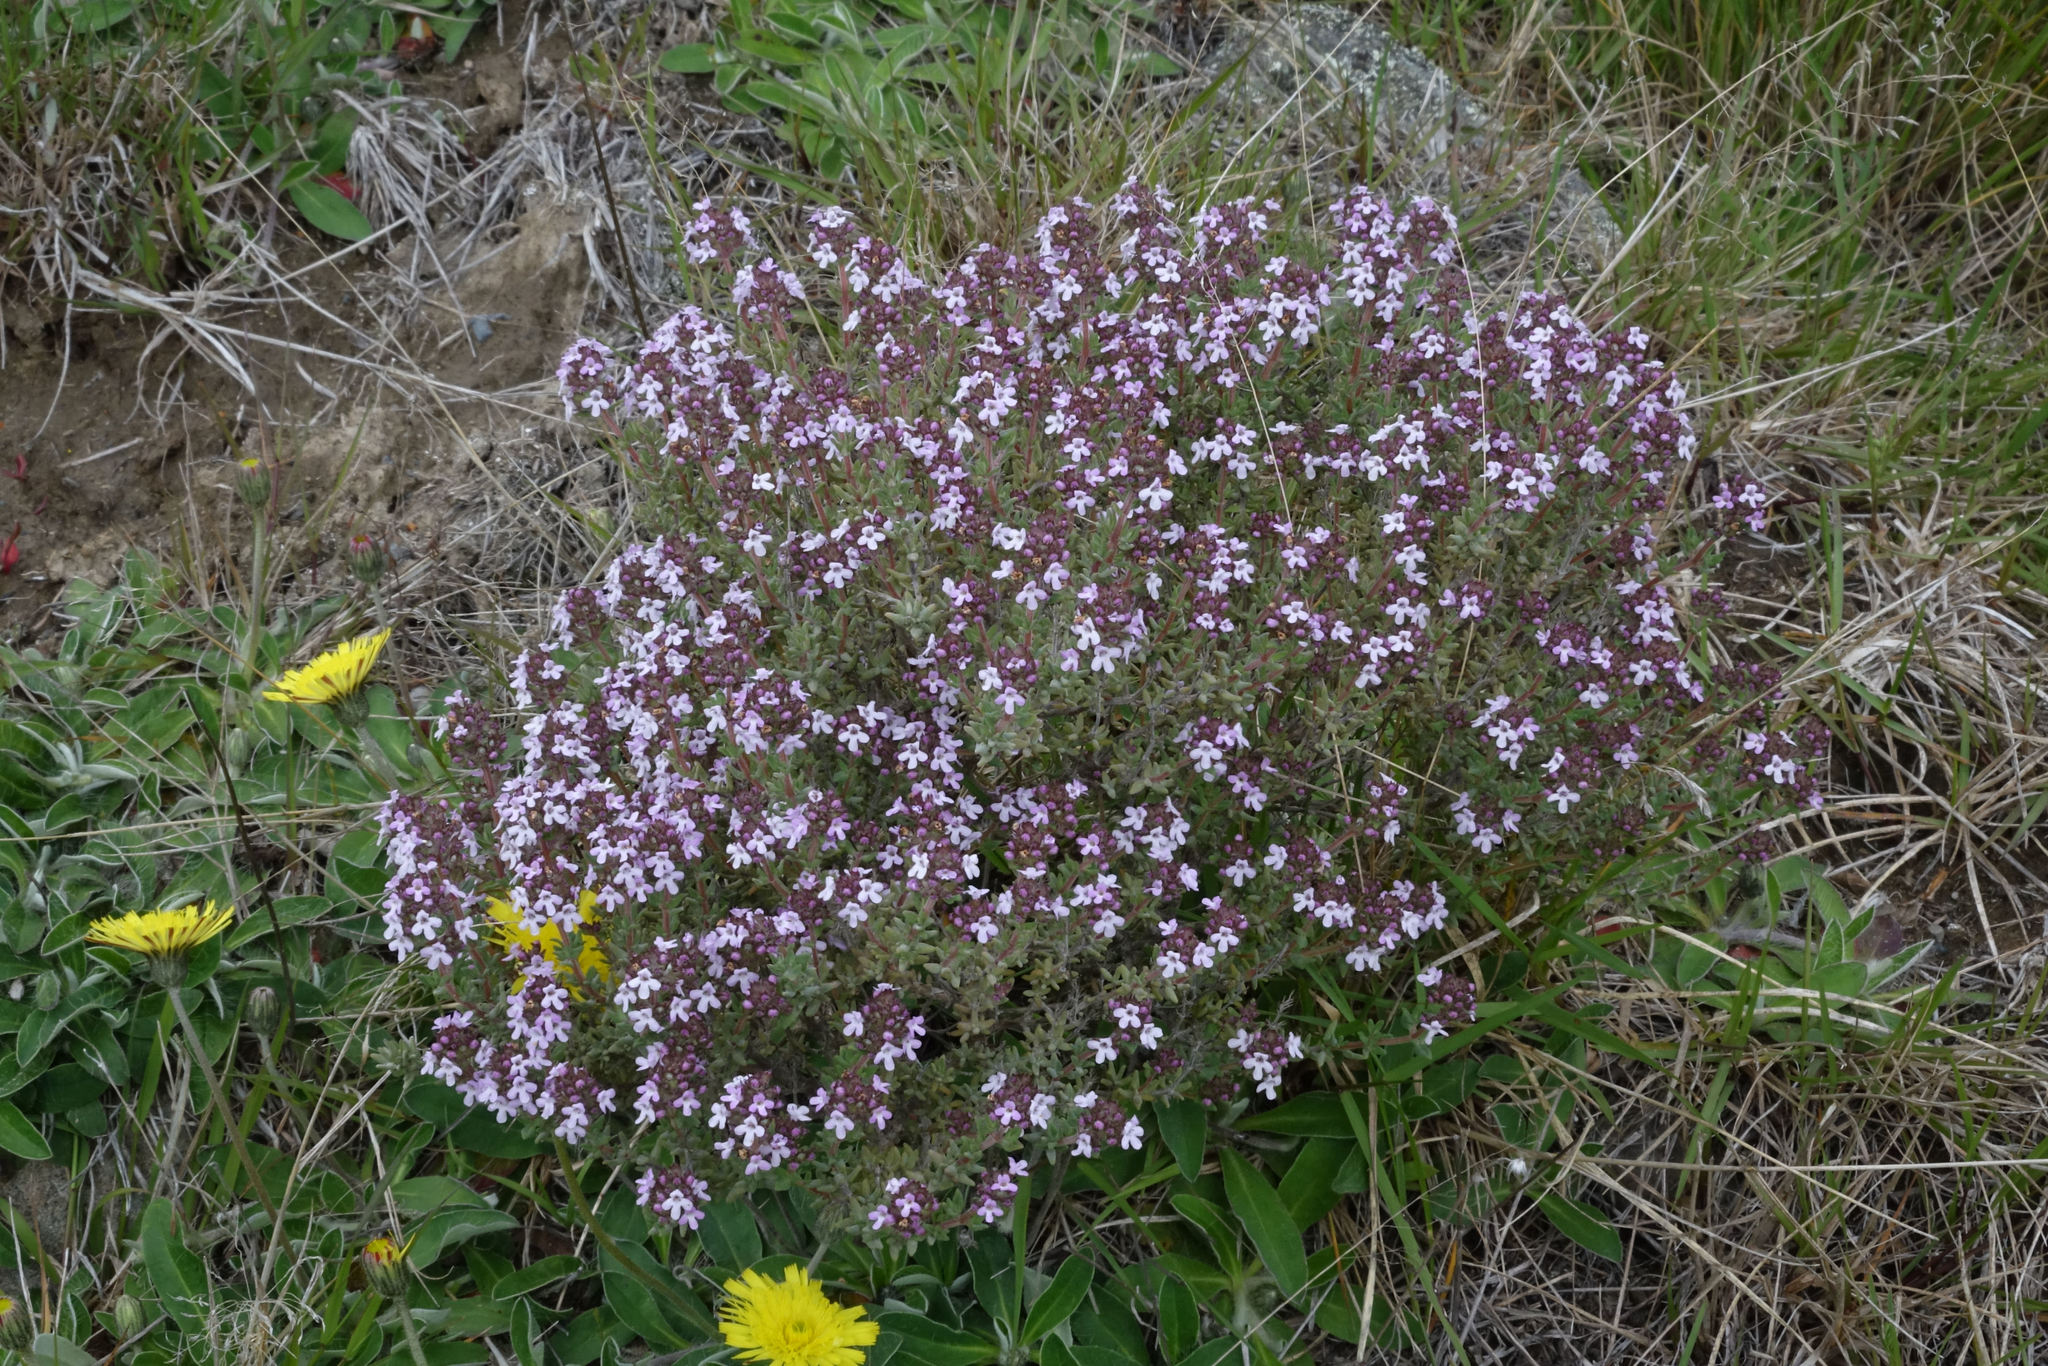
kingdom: Plantae
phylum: Tracheophyta
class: Magnoliopsida
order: Lamiales
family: Lamiaceae
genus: Thymus
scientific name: Thymus vulgaris
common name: Garden thyme
